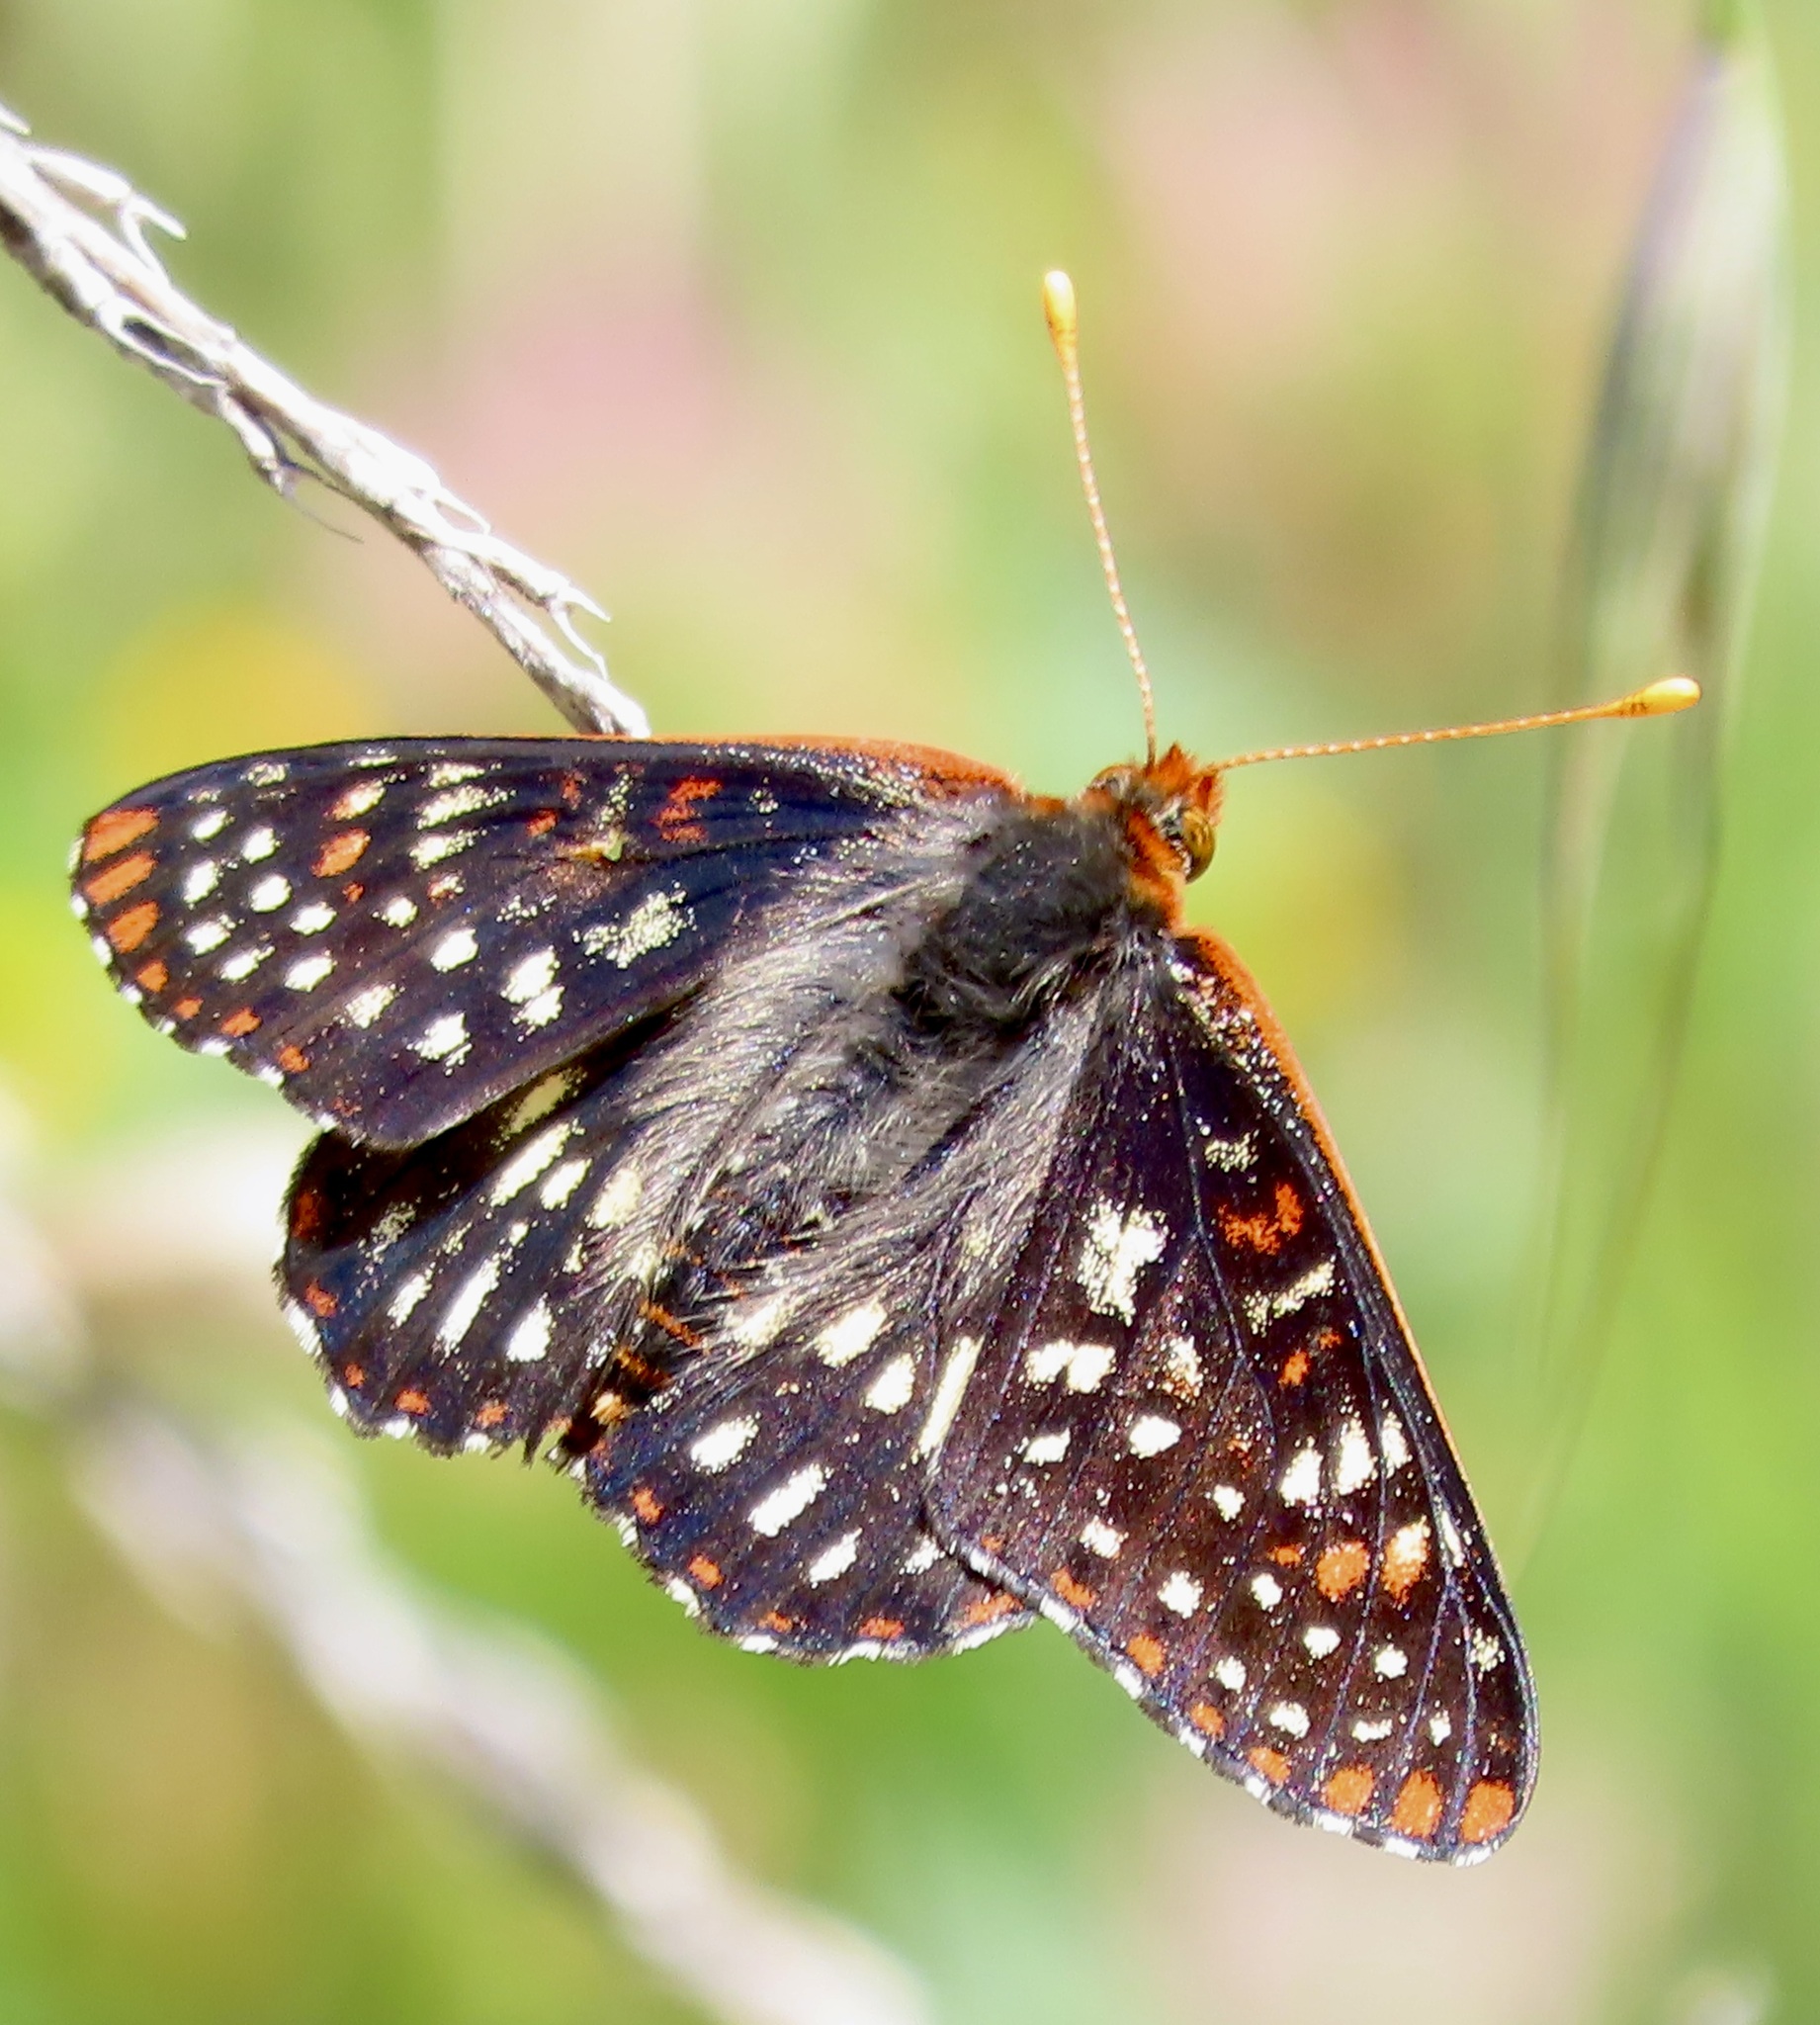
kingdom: Animalia
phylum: Arthropoda
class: Insecta
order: Lepidoptera
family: Nymphalidae
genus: Occidryas
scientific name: Occidryas chalcedona
